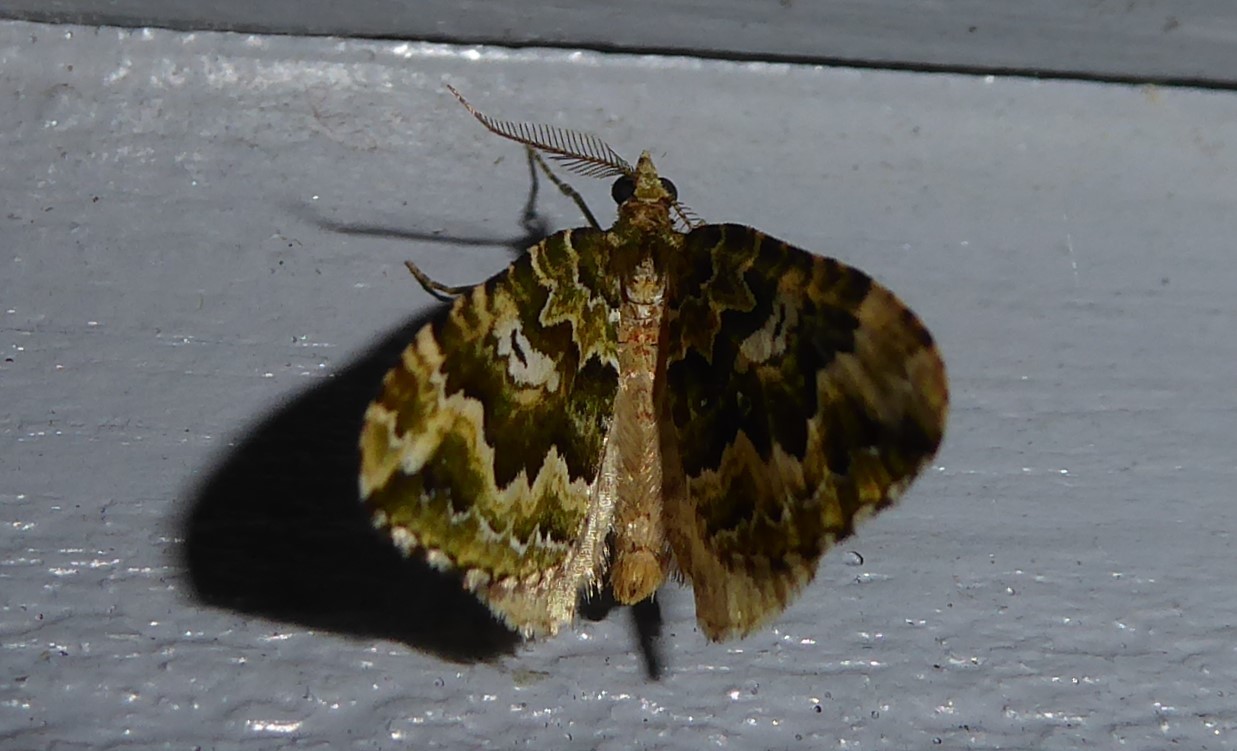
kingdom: Animalia
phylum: Arthropoda
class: Insecta
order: Lepidoptera
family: Geometridae
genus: Asaphodes
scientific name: Asaphodes beata
